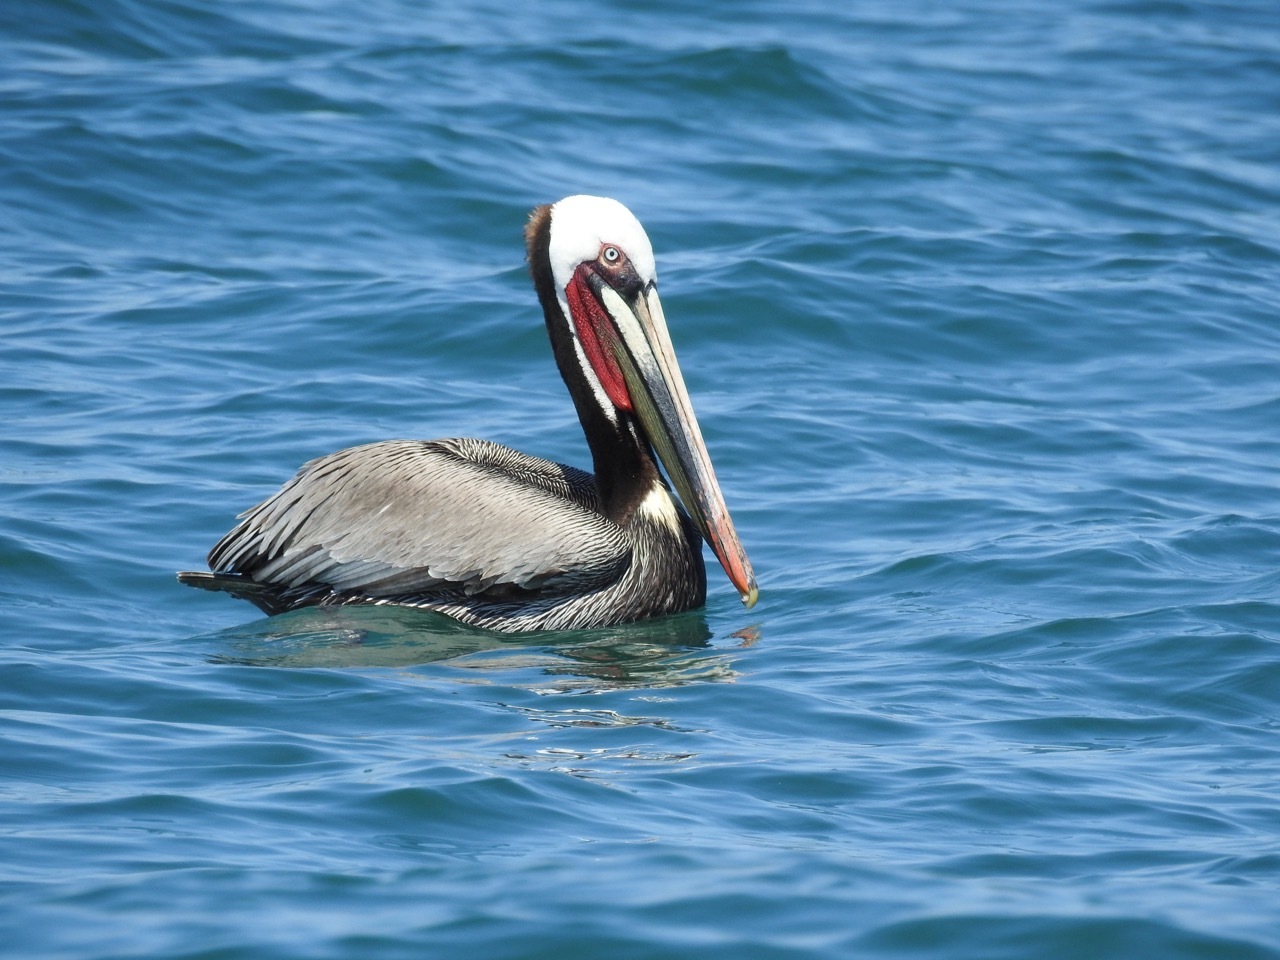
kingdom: Animalia
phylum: Chordata
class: Aves
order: Pelecaniformes
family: Pelecanidae
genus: Pelecanus
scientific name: Pelecanus occidentalis
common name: Brown pelican
